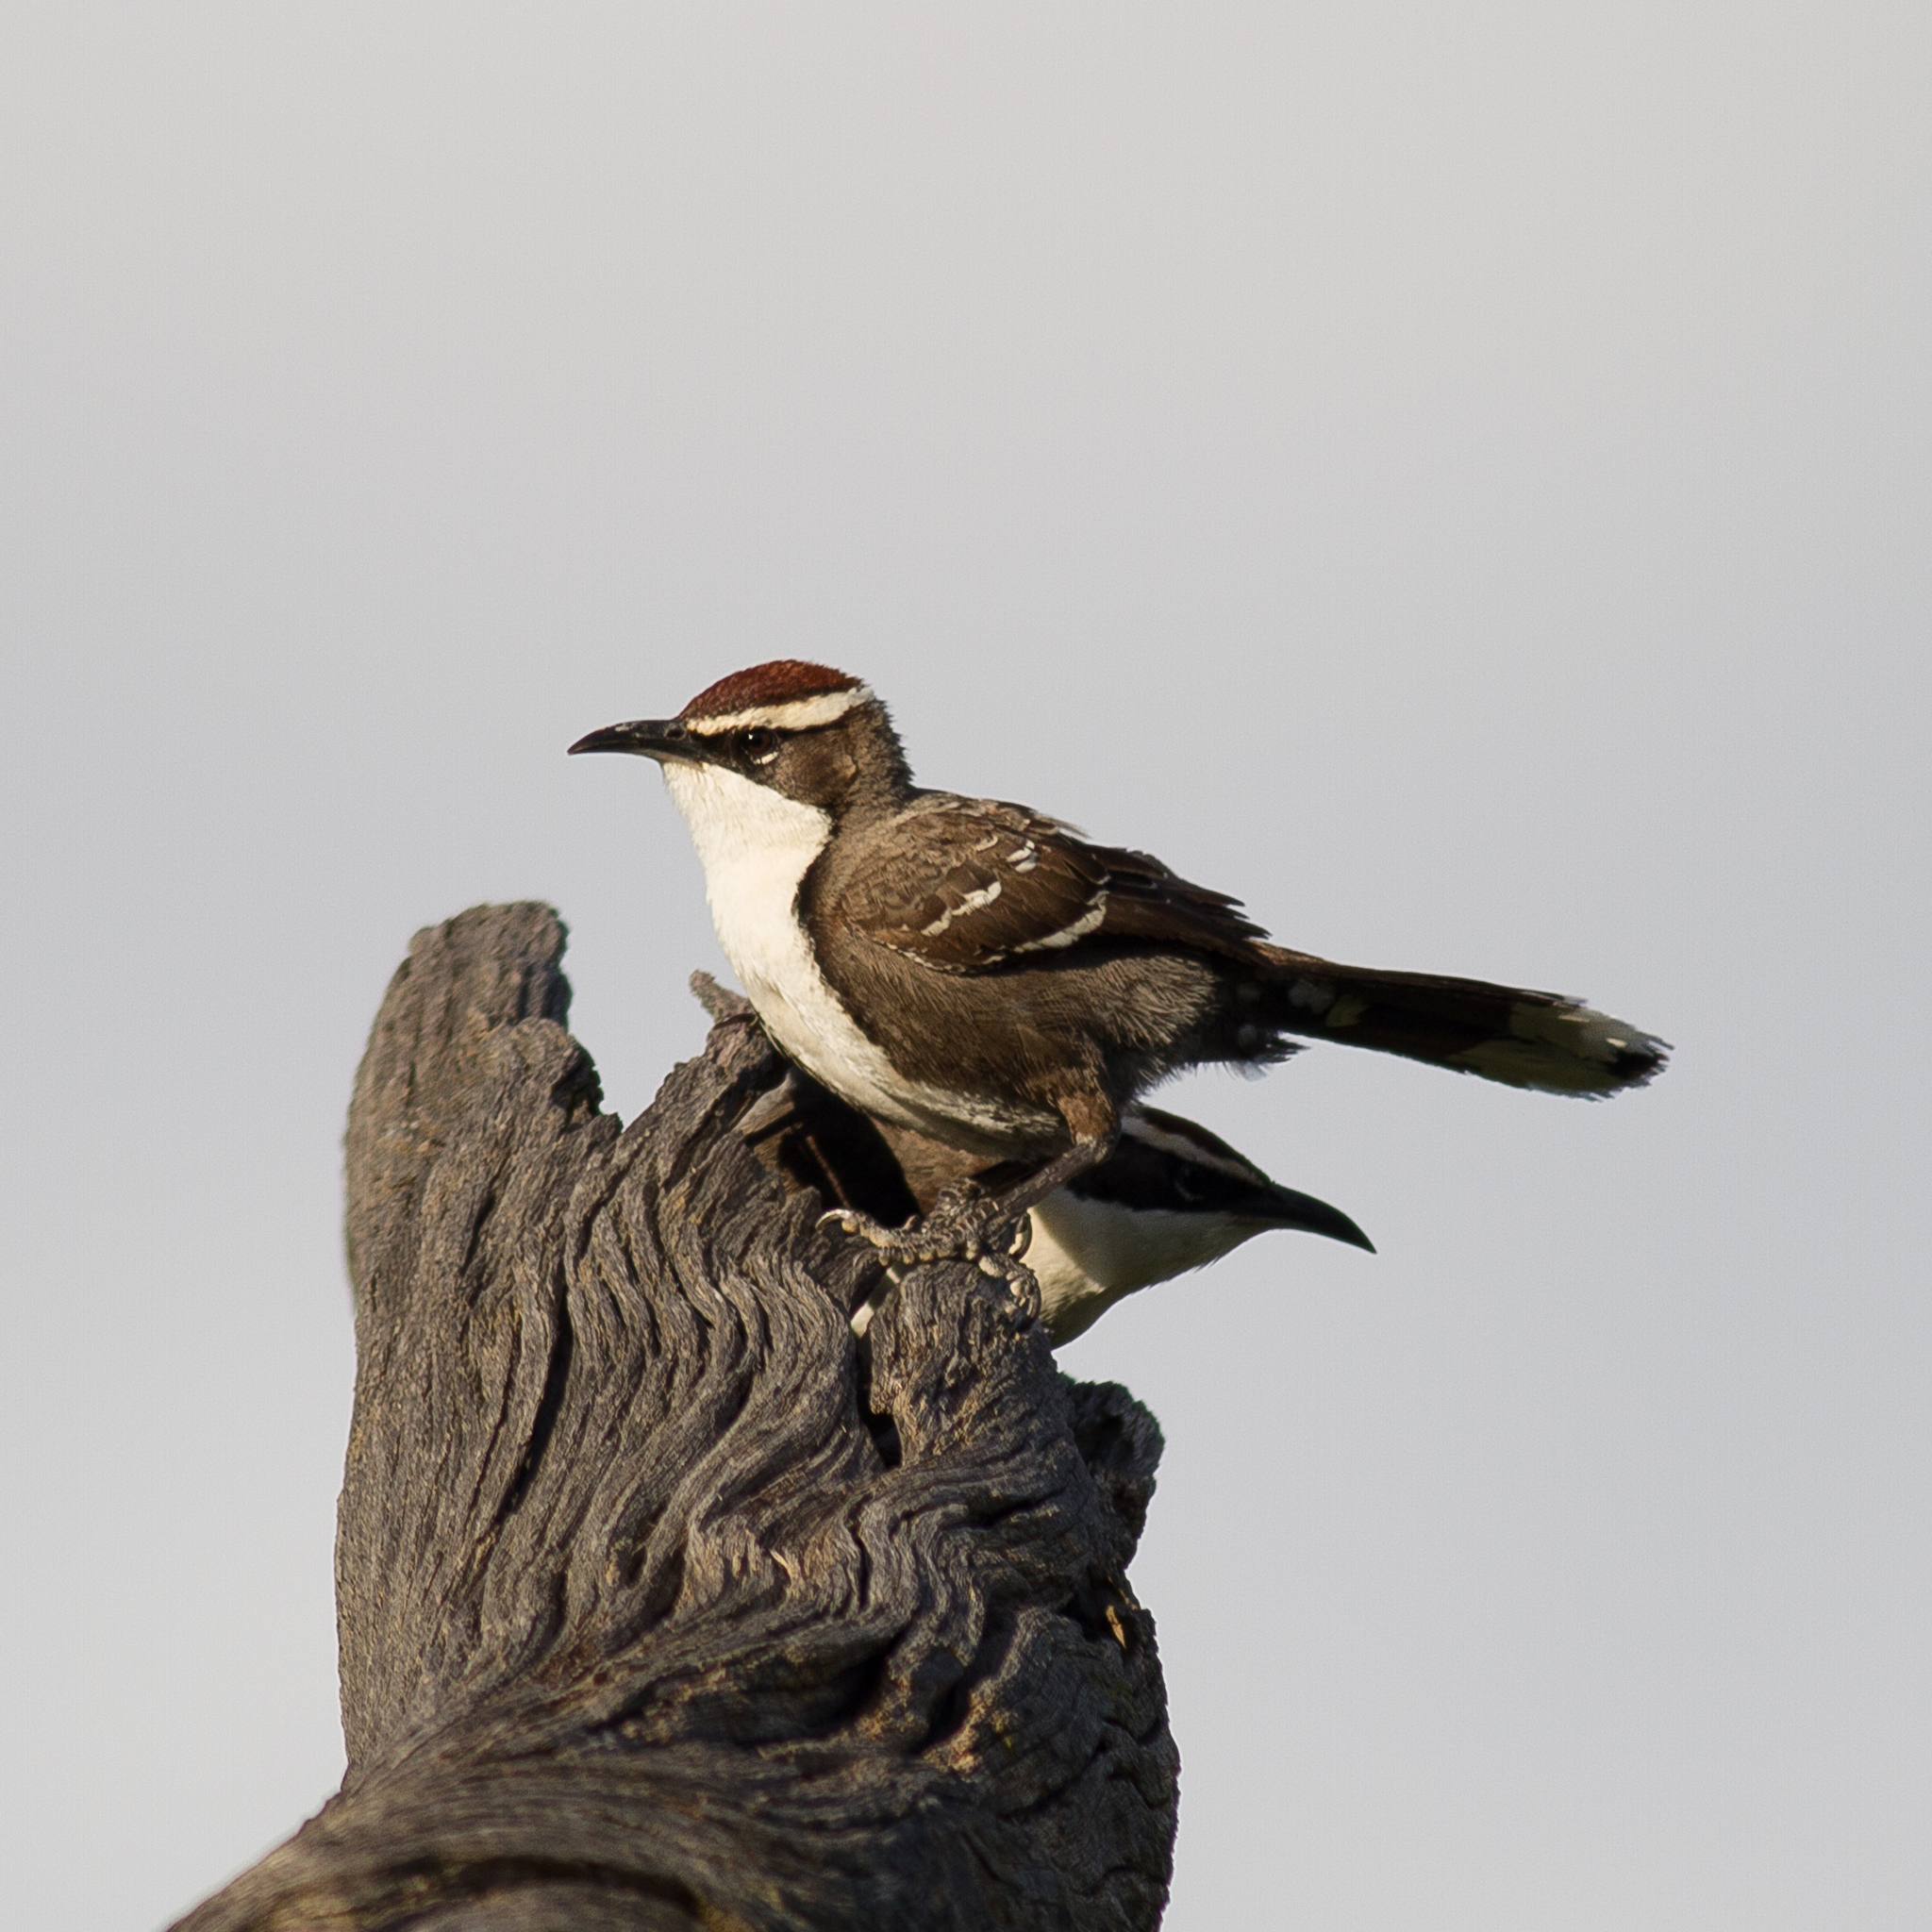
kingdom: Animalia
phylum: Chordata
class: Aves
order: Passeriformes
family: Pomatostomidae
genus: Pomatostomus
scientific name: Pomatostomus ruficeps
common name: Chestnut-crowned babbler
